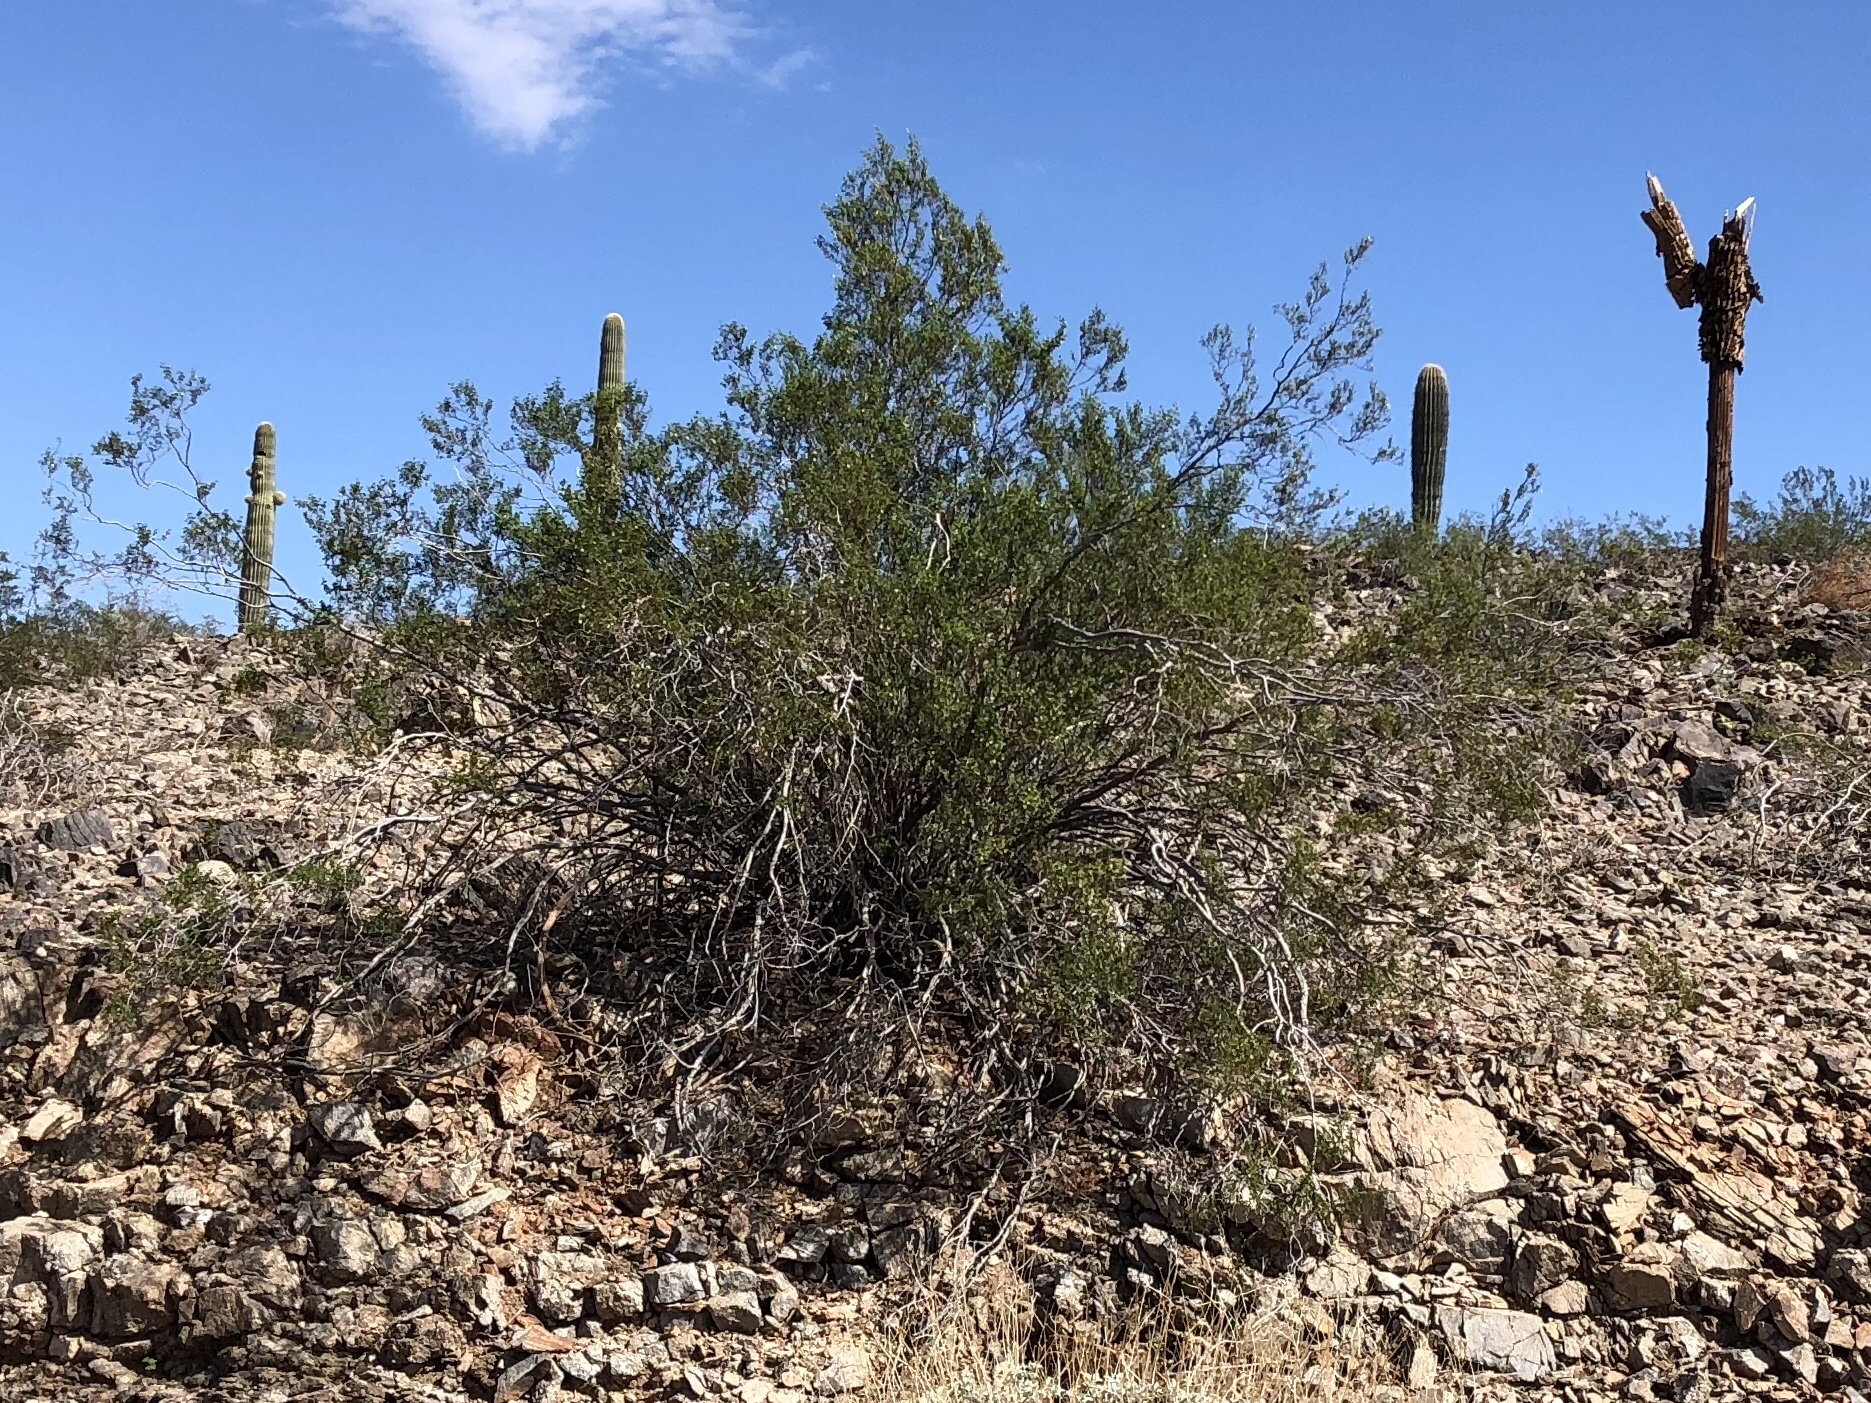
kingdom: Plantae
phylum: Tracheophyta
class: Magnoliopsida
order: Zygophyllales
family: Zygophyllaceae
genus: Larrea
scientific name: Larrea tridentata
